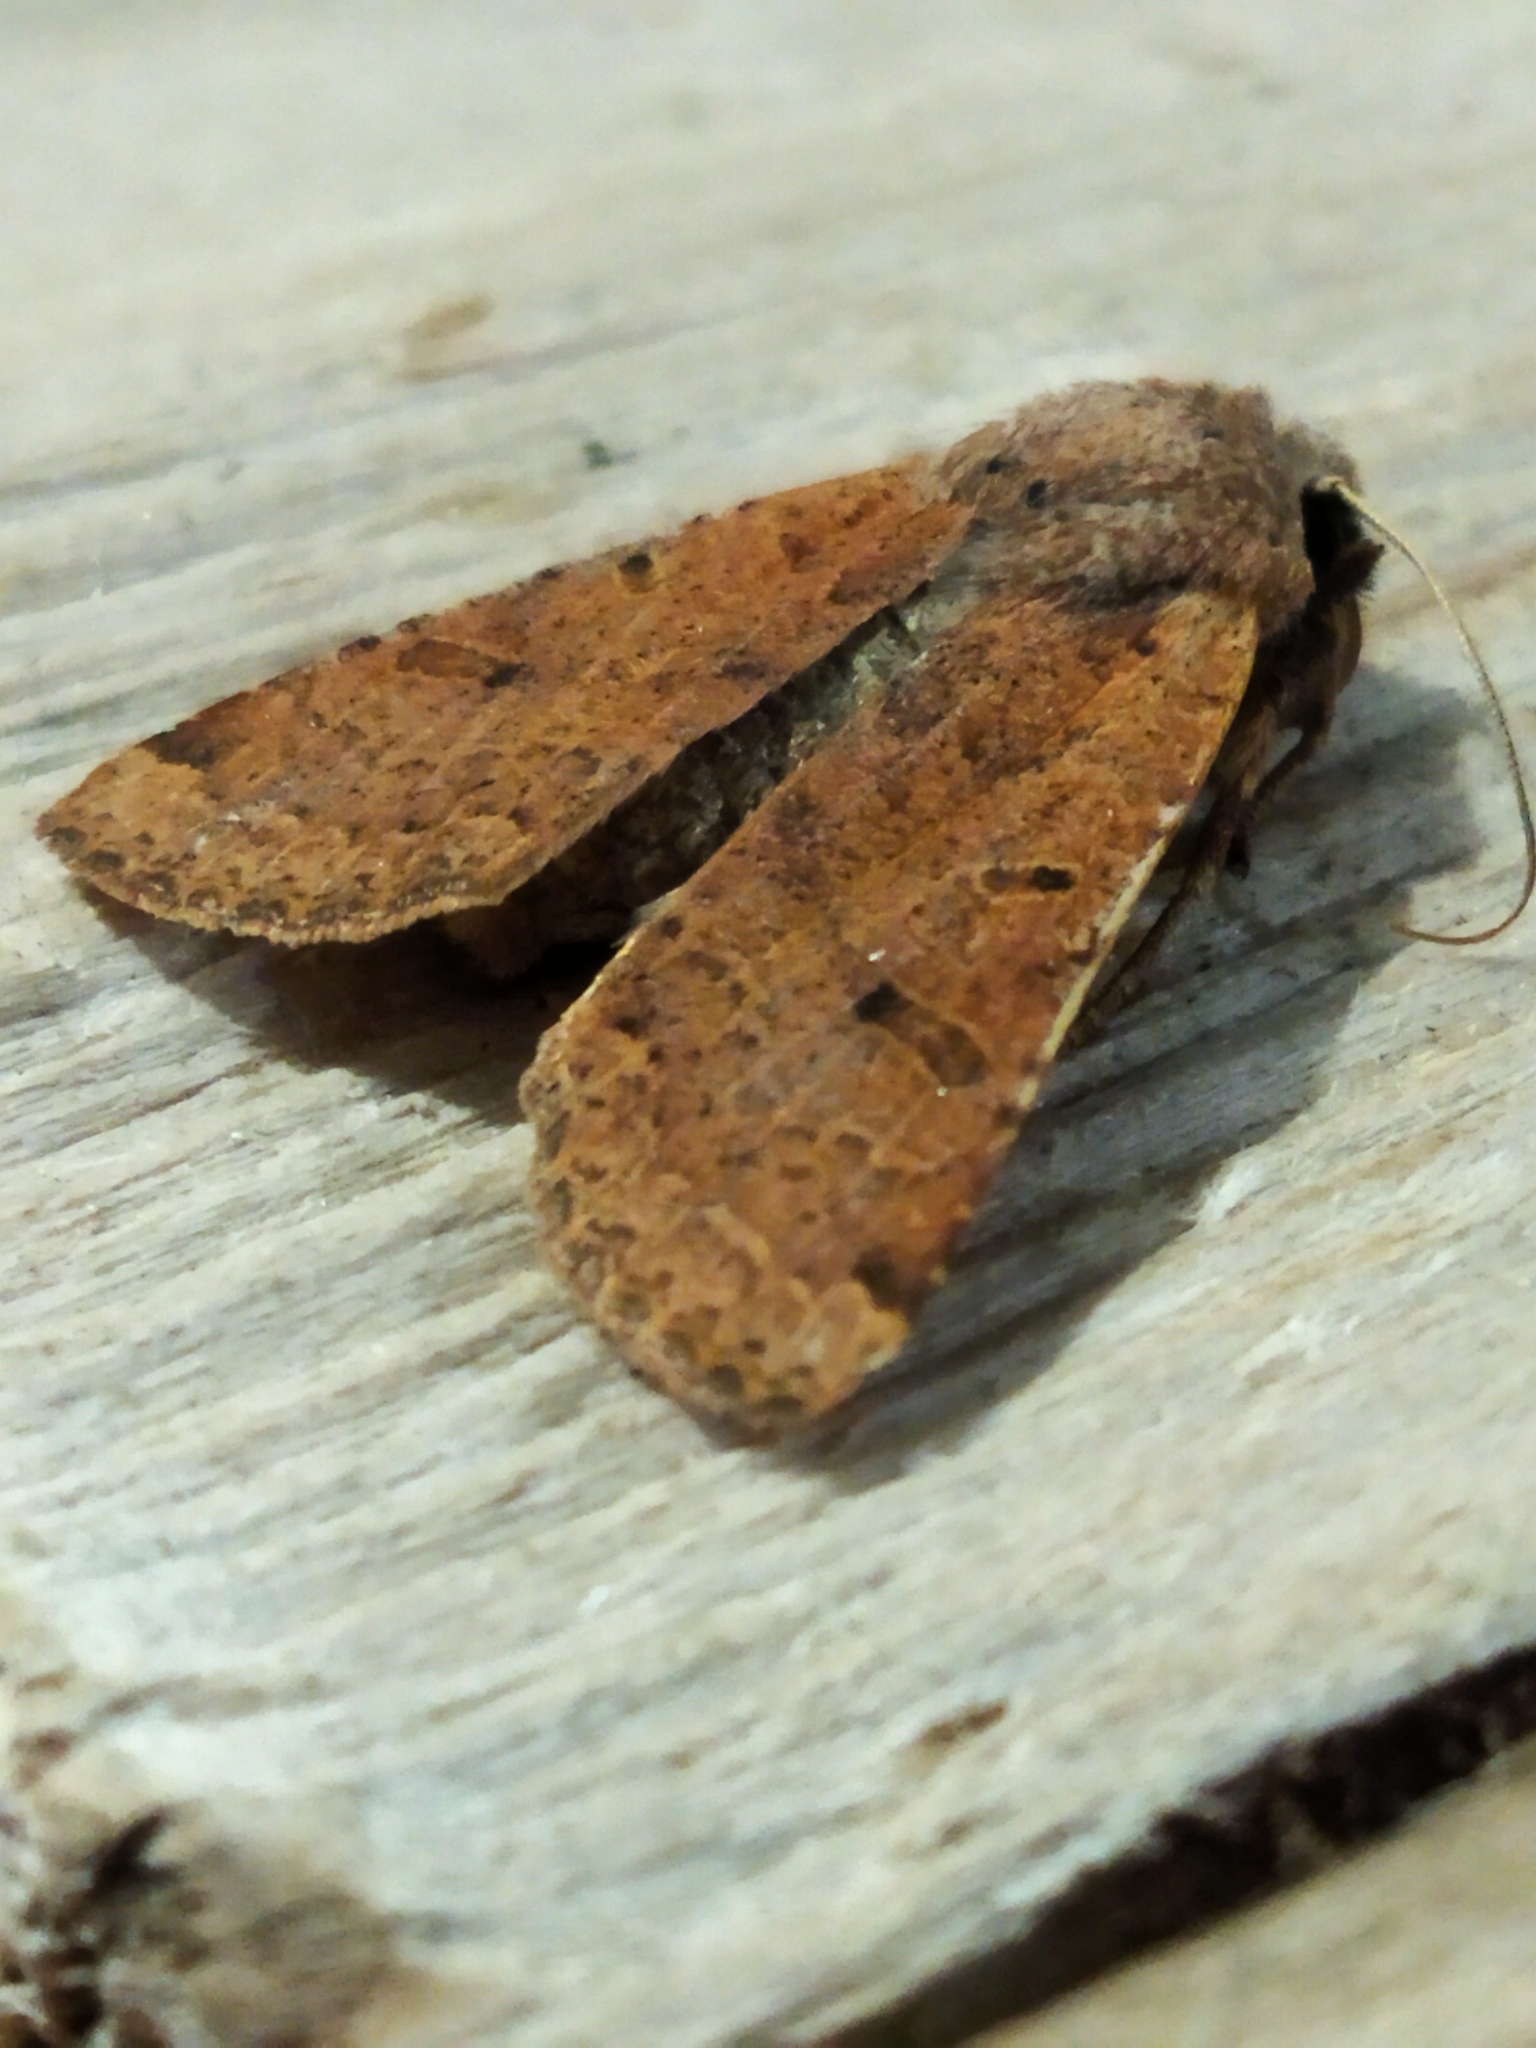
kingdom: Animalia
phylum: Arthropoda
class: Insecta
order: Lepidoptera
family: Noctuidae
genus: Agrochola
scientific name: Agrochola lychnidis
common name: Beaded chestnut
